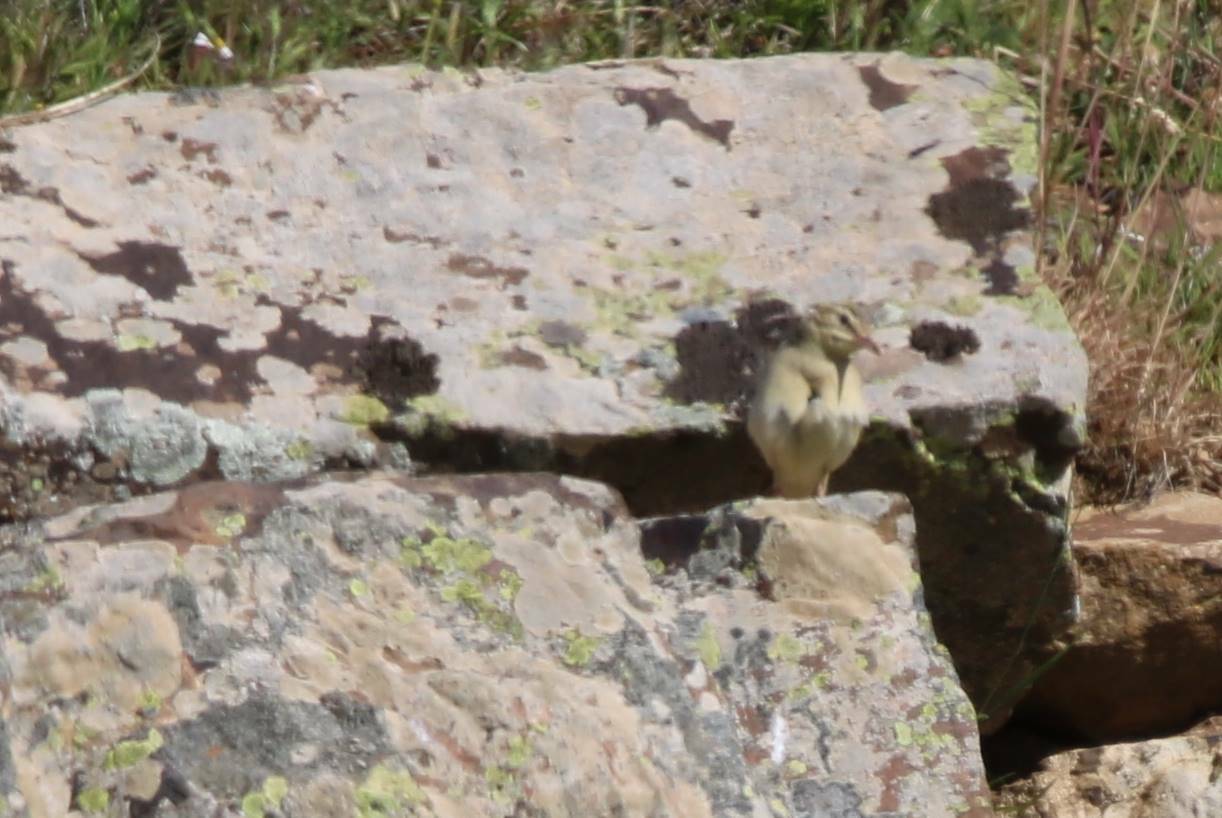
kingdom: Animalia
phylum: Chordata
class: Aves
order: Passeriformes
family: Motacillidae
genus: Anthus
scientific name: Anthus campestris
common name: Tawny pipit
